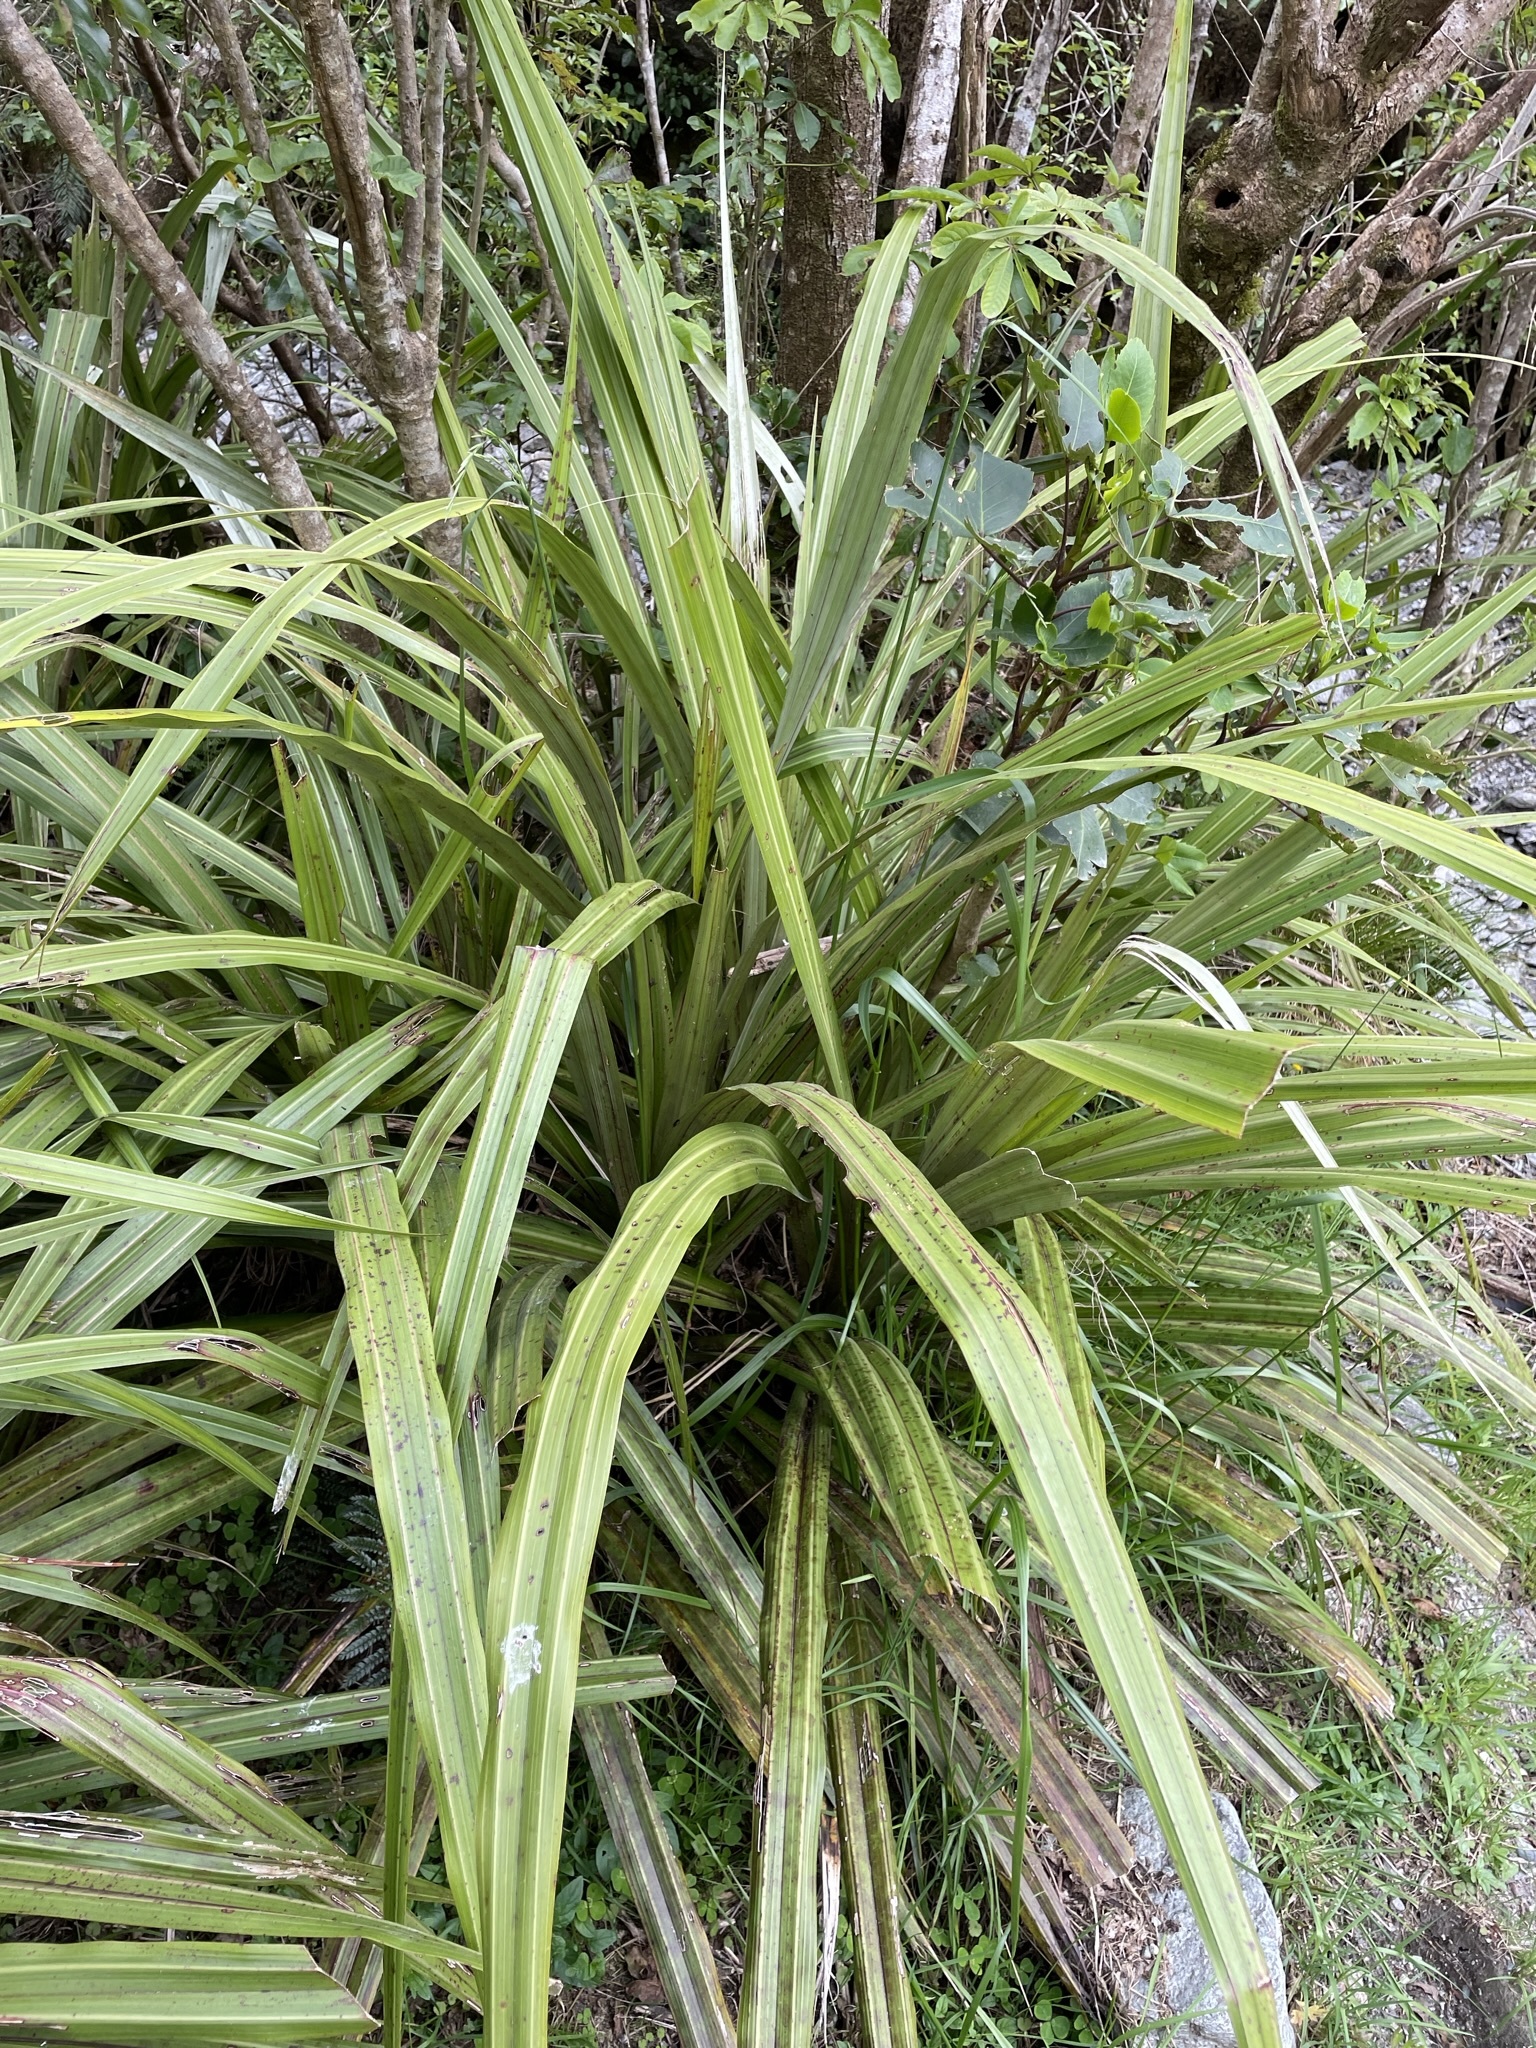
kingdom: Plantae
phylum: Tracheophyta
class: Liliopsida
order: Asparagales
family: Asteliaceae
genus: Astelia
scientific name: Astelia fragrans
